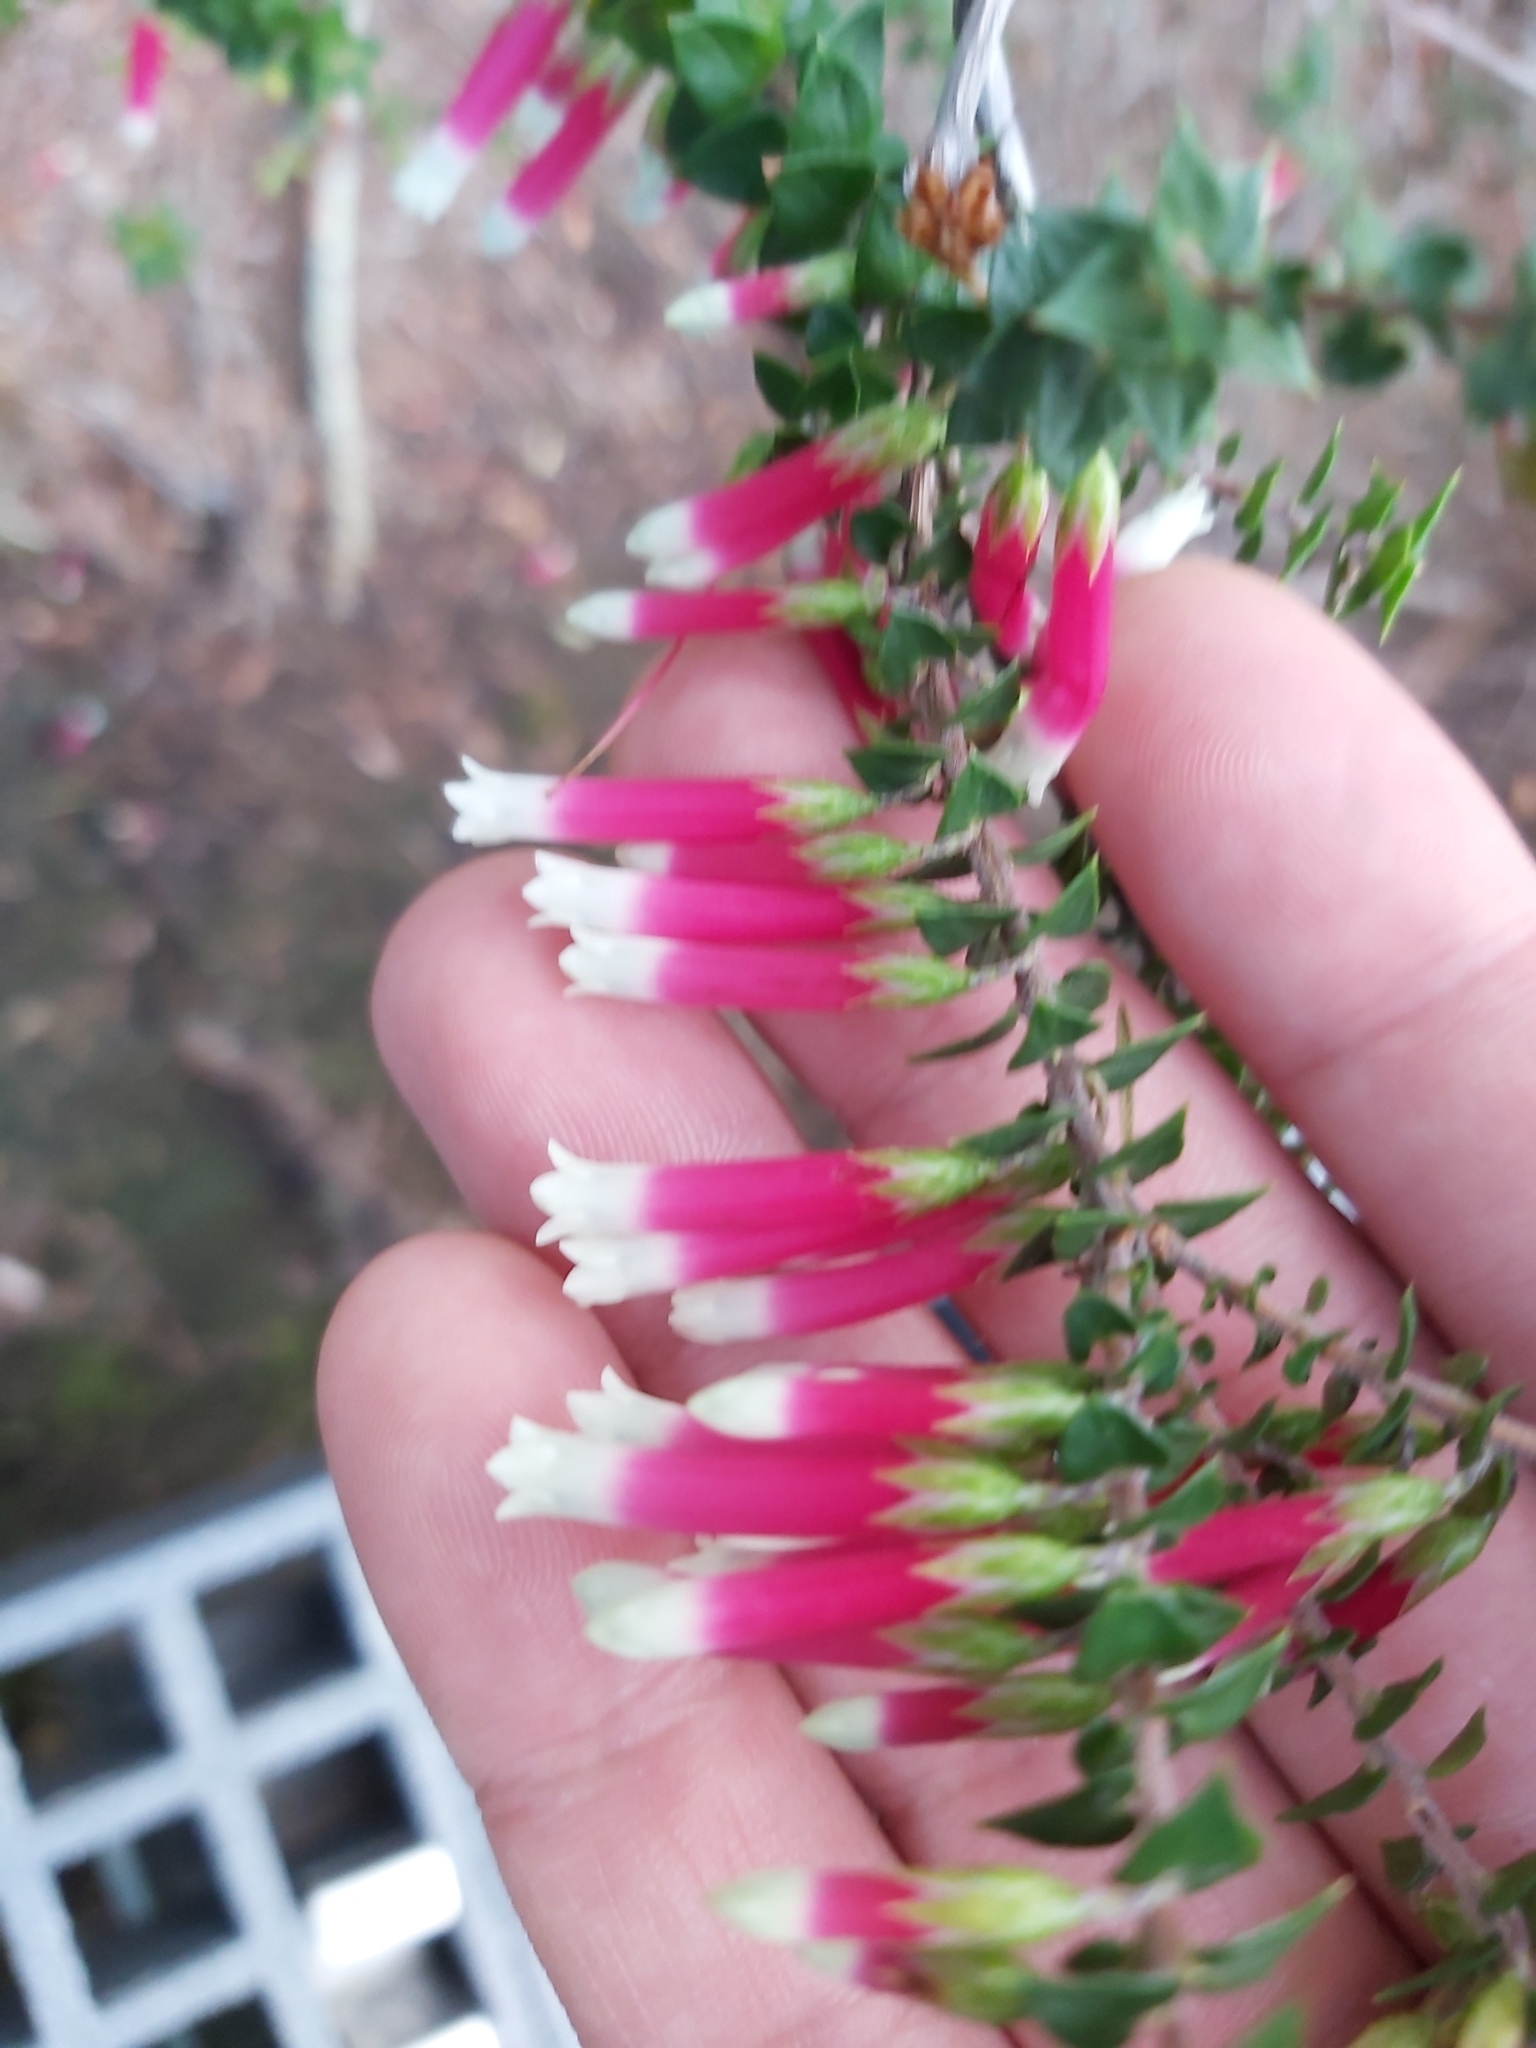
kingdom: Plantae
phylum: Tracheophyta
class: Magnoliopsida
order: Ericales
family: Ericaceae
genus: Epacris
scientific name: Epacris longiflora
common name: Fuchsia-heath
